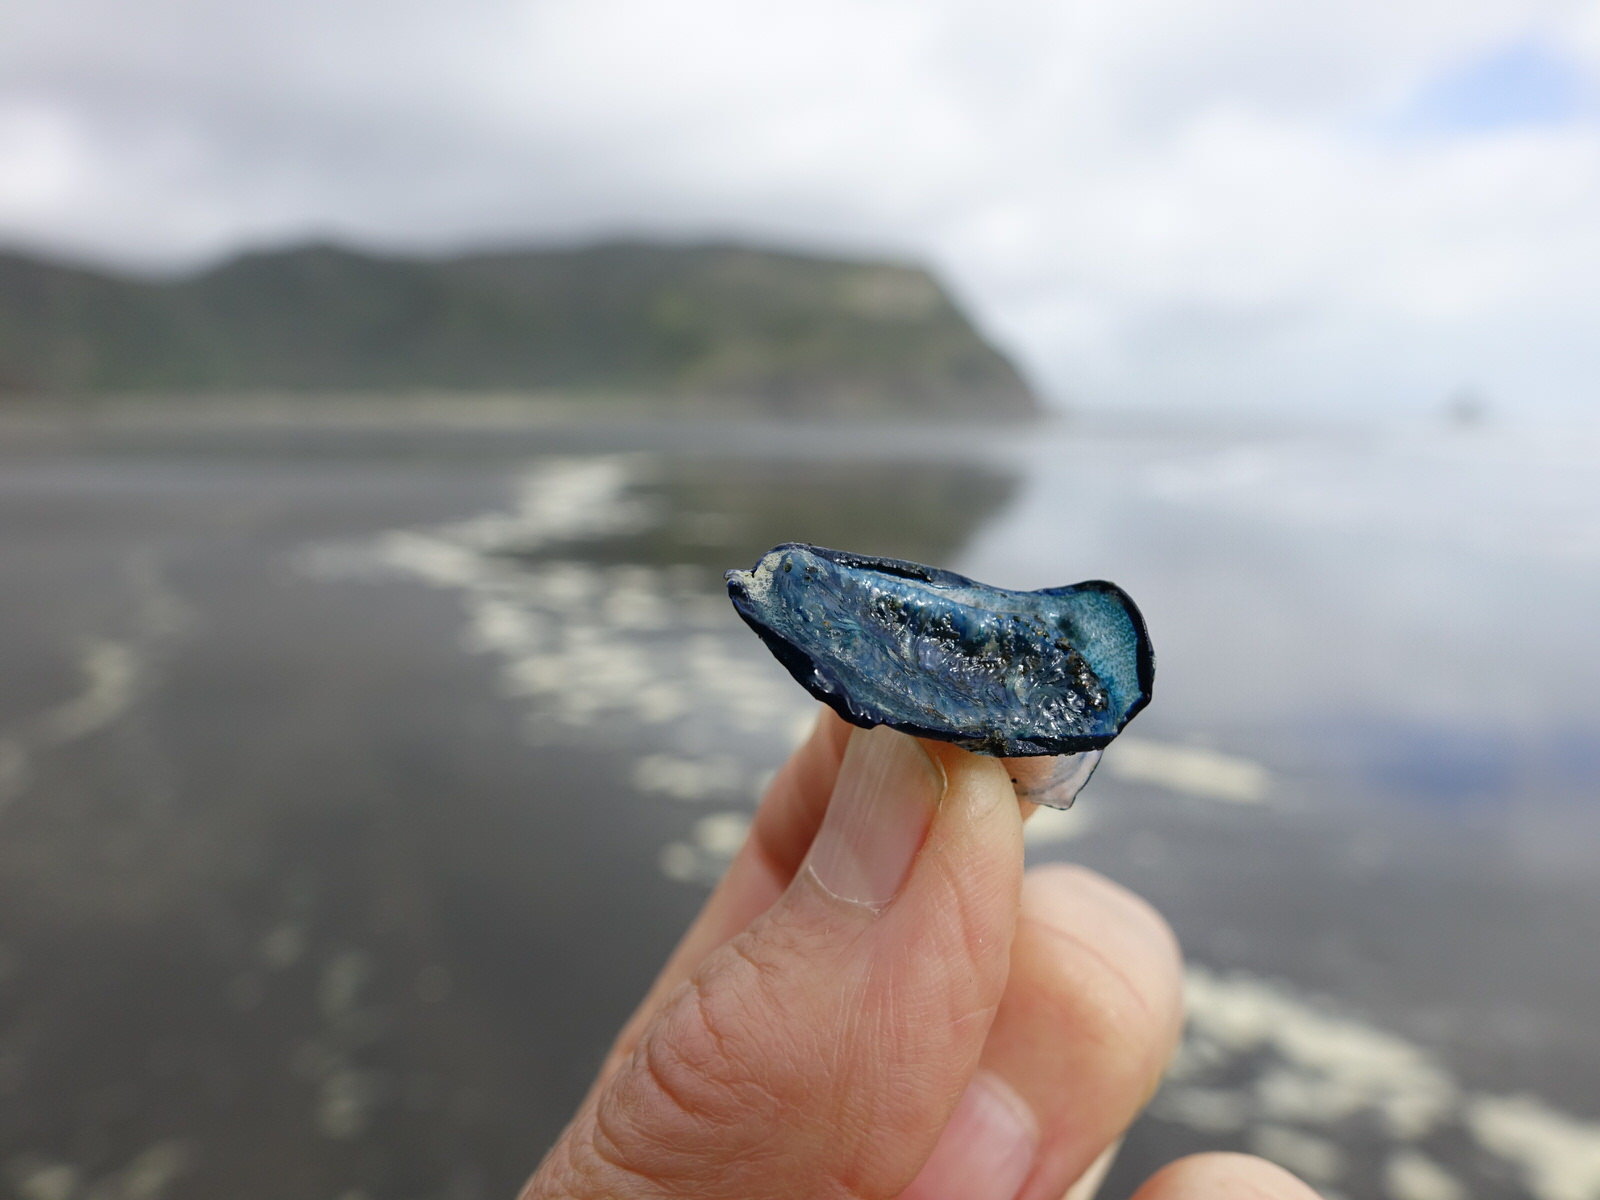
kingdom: Animalia
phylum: Cnidaria
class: Hydrozoa
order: Anthoathecata
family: Porpitidae
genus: Velella
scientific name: Velella velella
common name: By-the-wind-sailor
